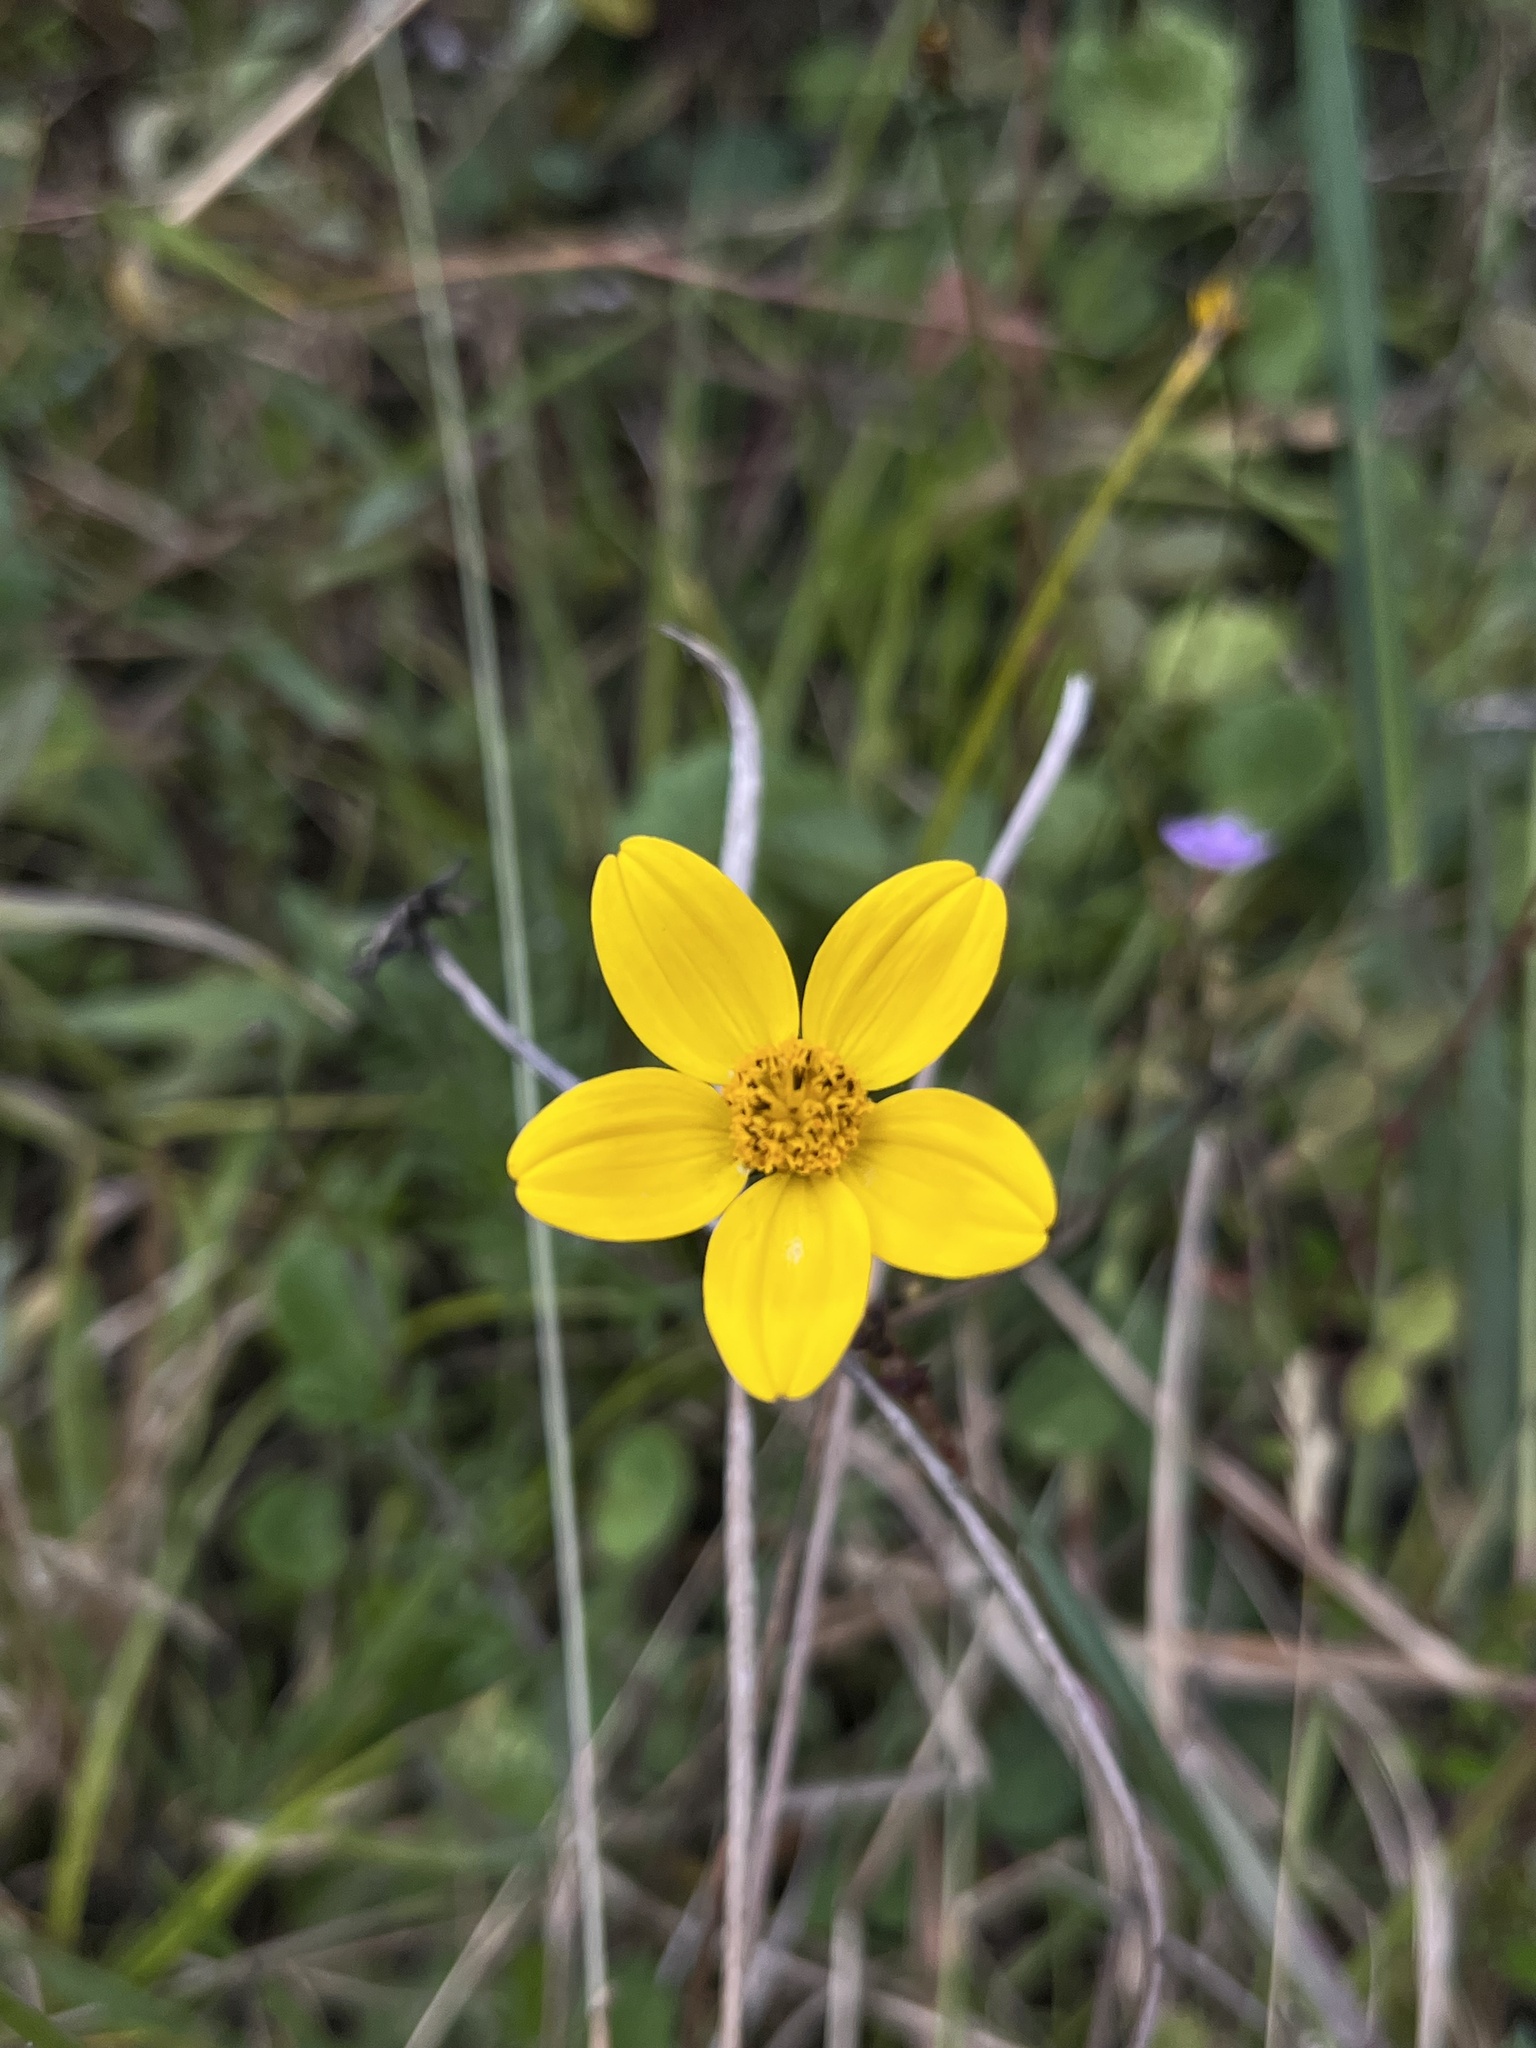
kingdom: Plantae
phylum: Tracheophyta
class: Magnoliopsida
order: Asterales
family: Asteraceae
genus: Bidens
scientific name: Bidens triplinervia
